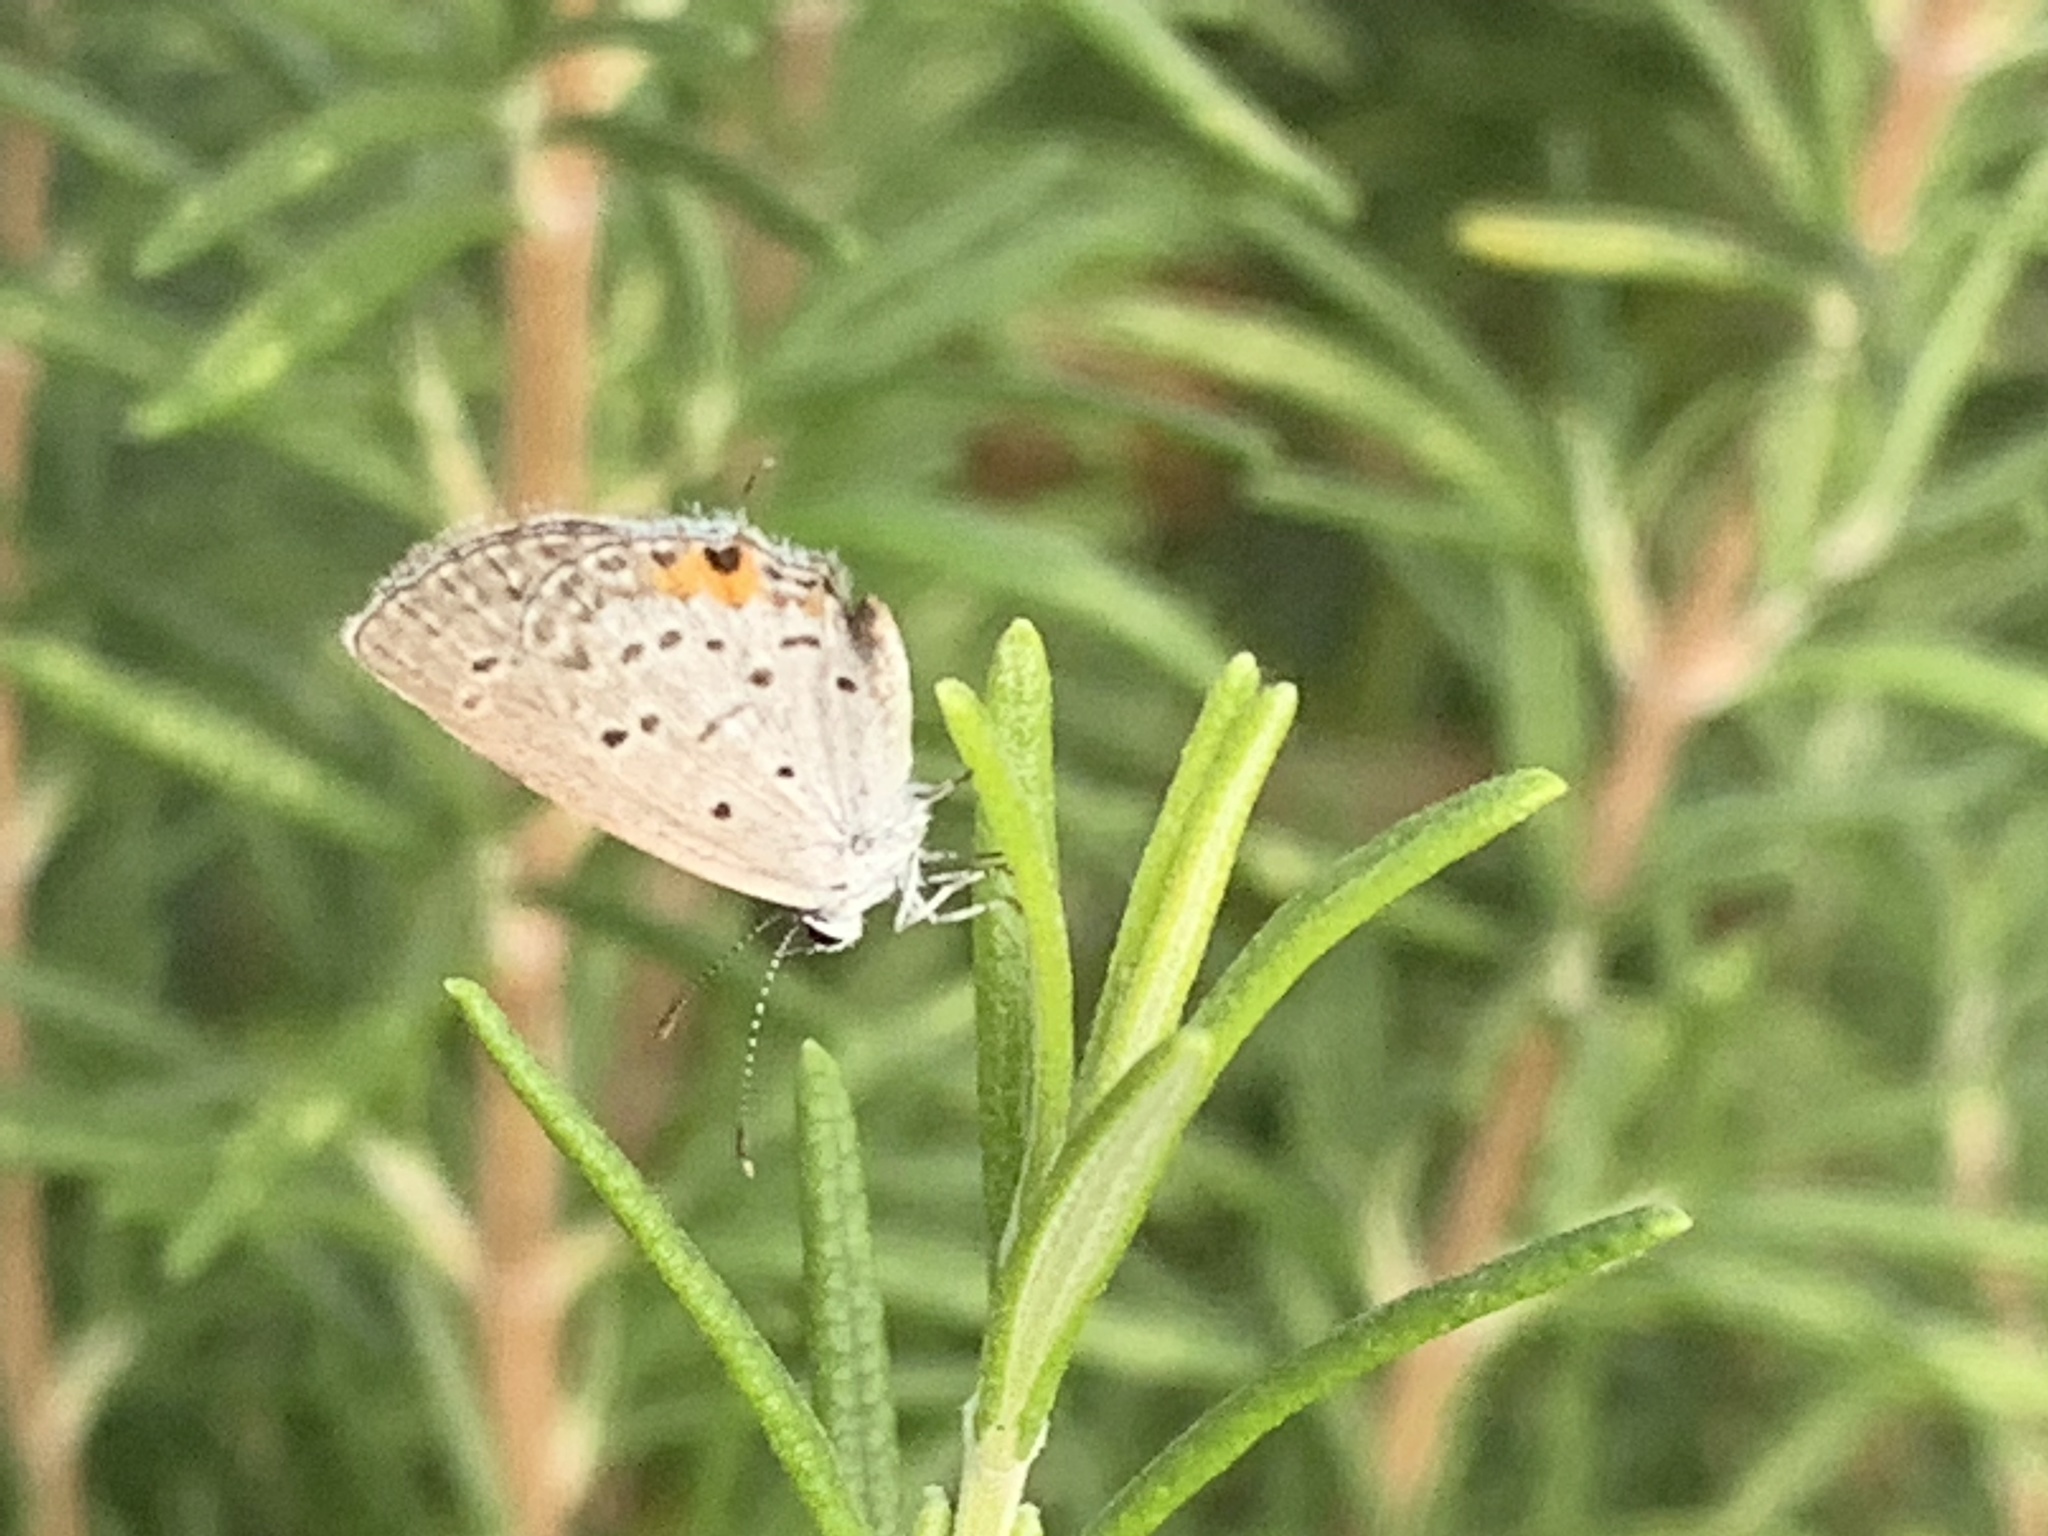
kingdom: Animalia
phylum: Arthropoda
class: Insecta
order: Lepidoptera
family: Lycaenidae
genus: Elkalyce
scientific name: Elkalyce comyntas
